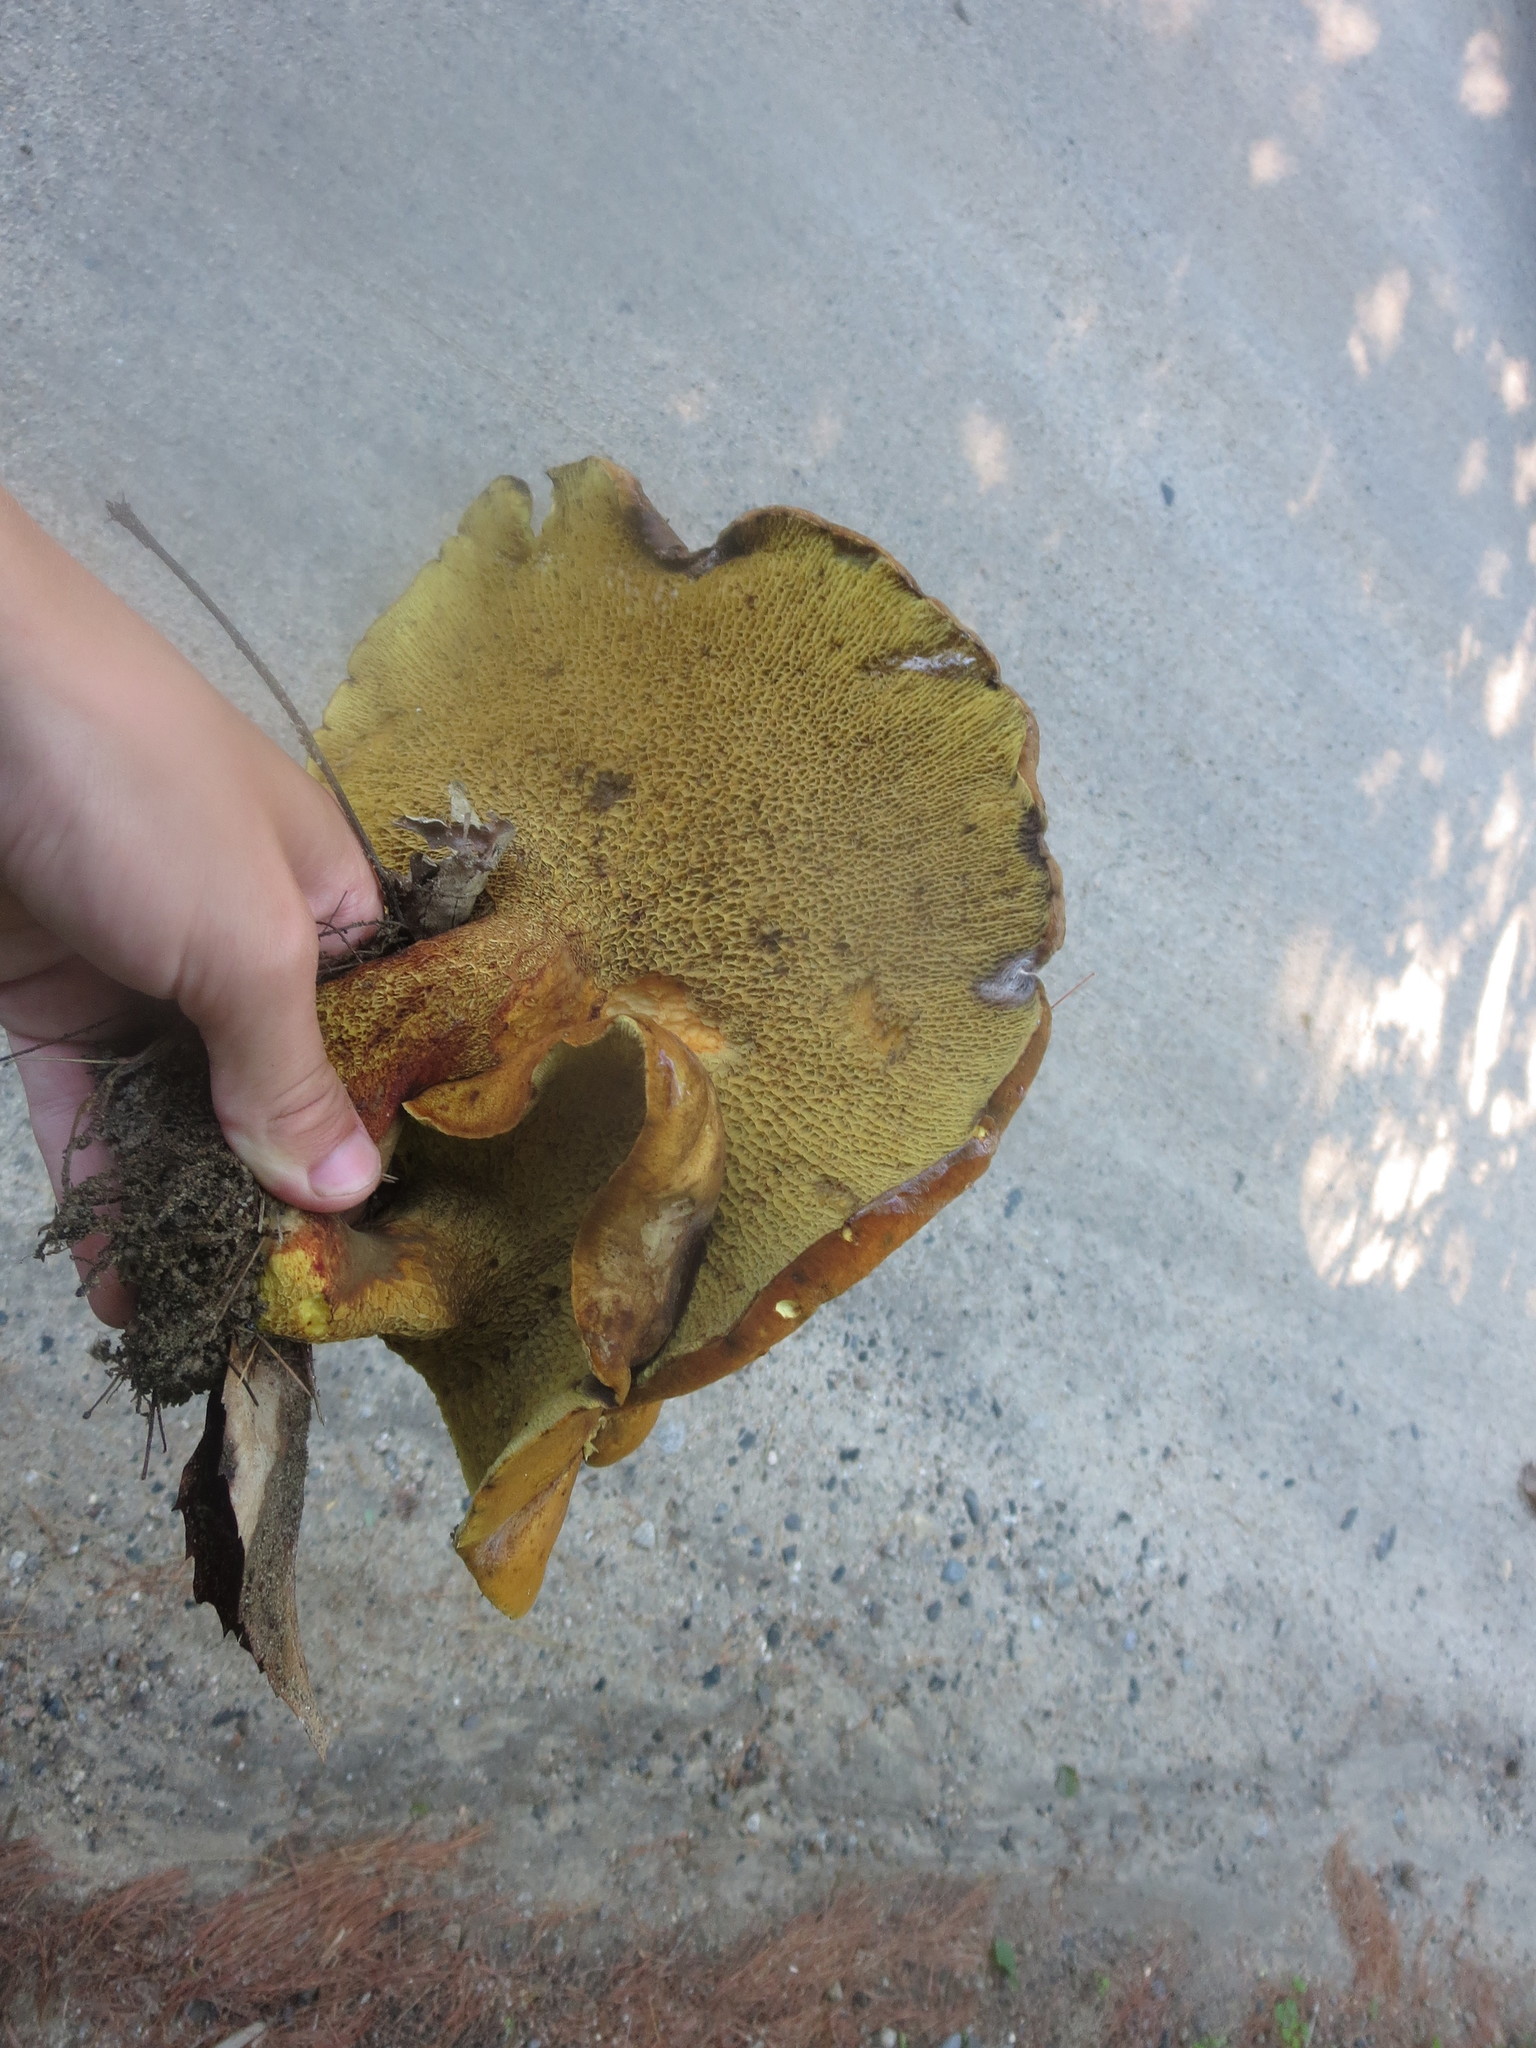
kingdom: Fungi
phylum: Basidiomycota
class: Agaricomycetes
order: Boletales
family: Boletinellaceae
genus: Boletinellus
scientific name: Boletinellus merulioides
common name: Ash tree bolete
